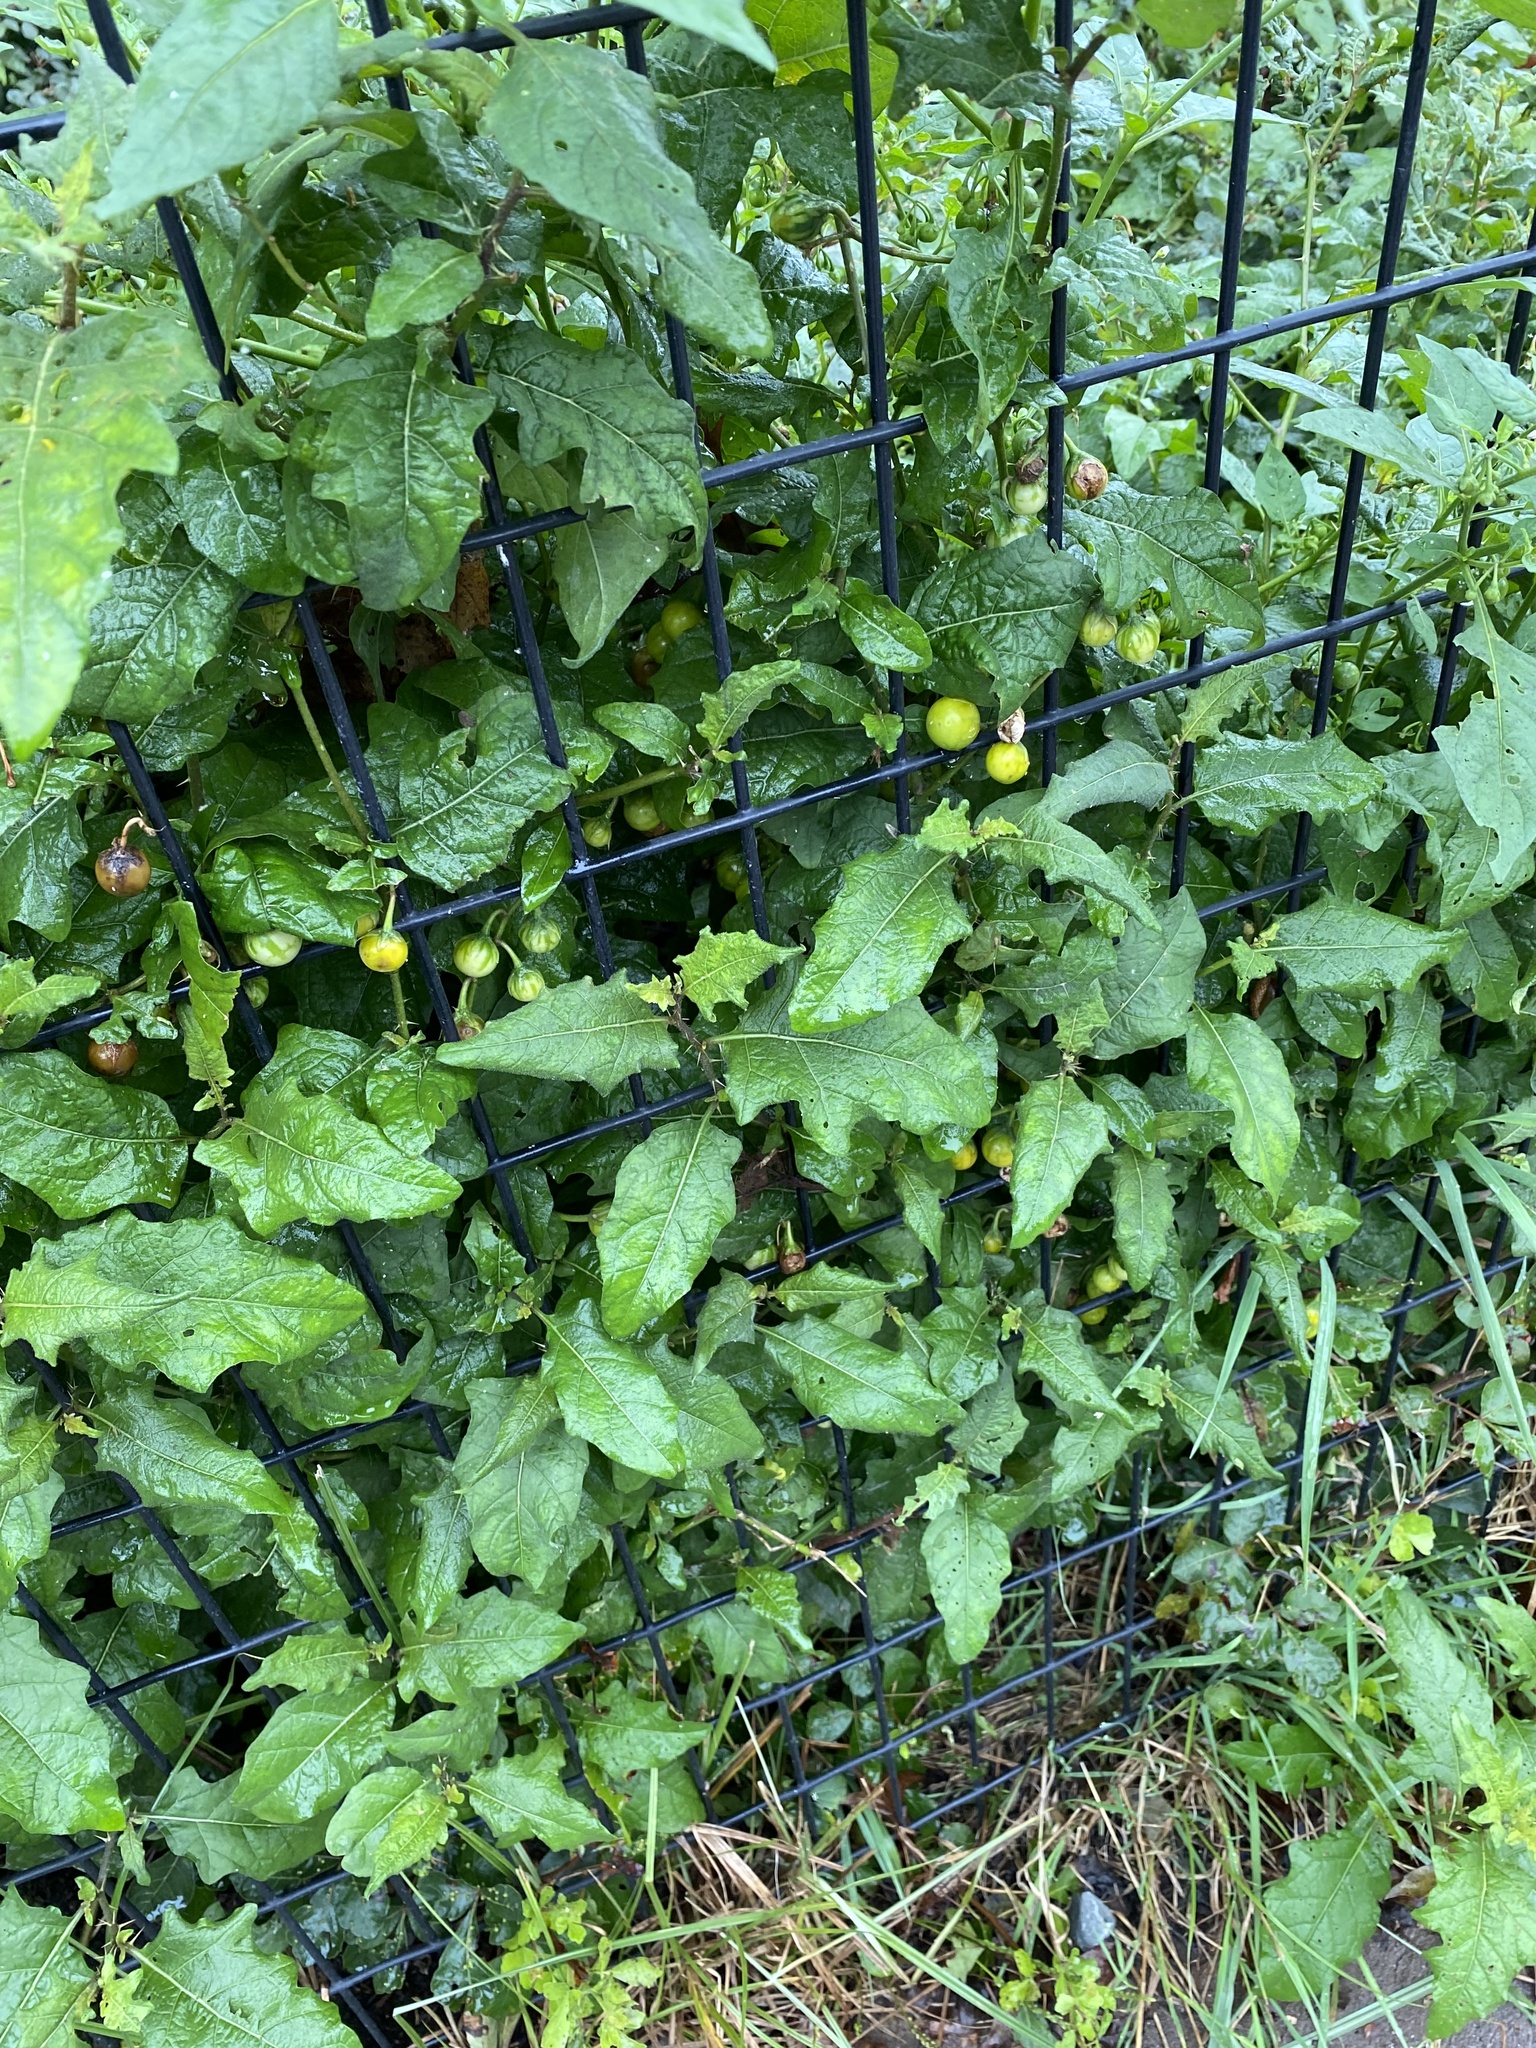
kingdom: Plantae
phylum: Tracheophyta
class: Magnoliopsida
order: Solanales
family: Solanaceae
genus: Solanum
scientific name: Solanum carolinense
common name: Horse-nettle
